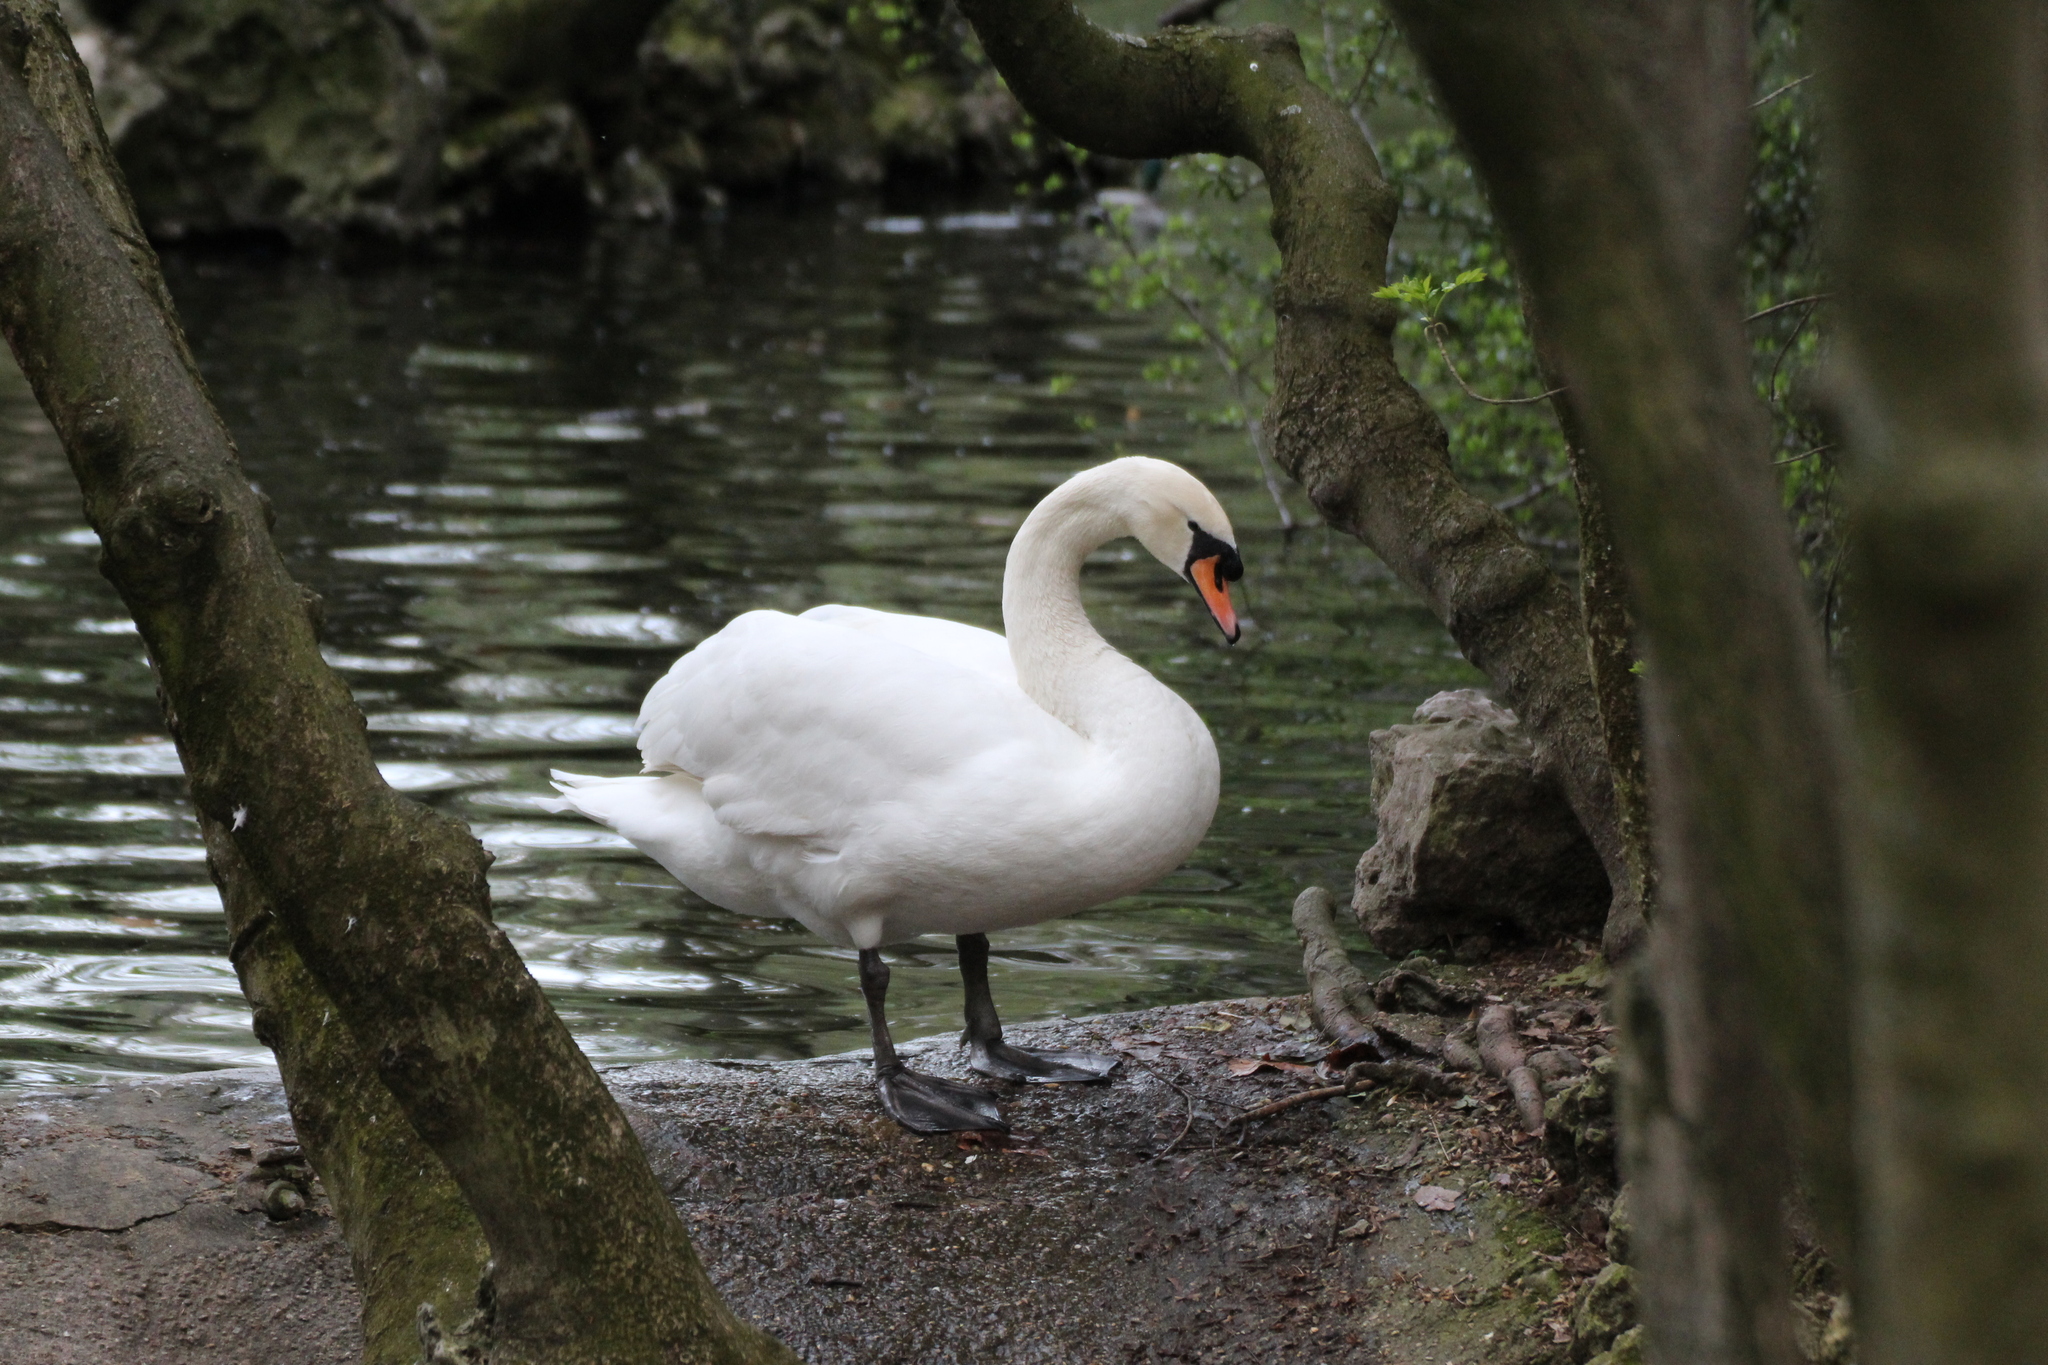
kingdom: Animalia
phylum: Chordata
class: Aves
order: Anseriformes
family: Anatidae
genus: Cygnus
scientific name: Cygnus olor
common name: Mute swan
